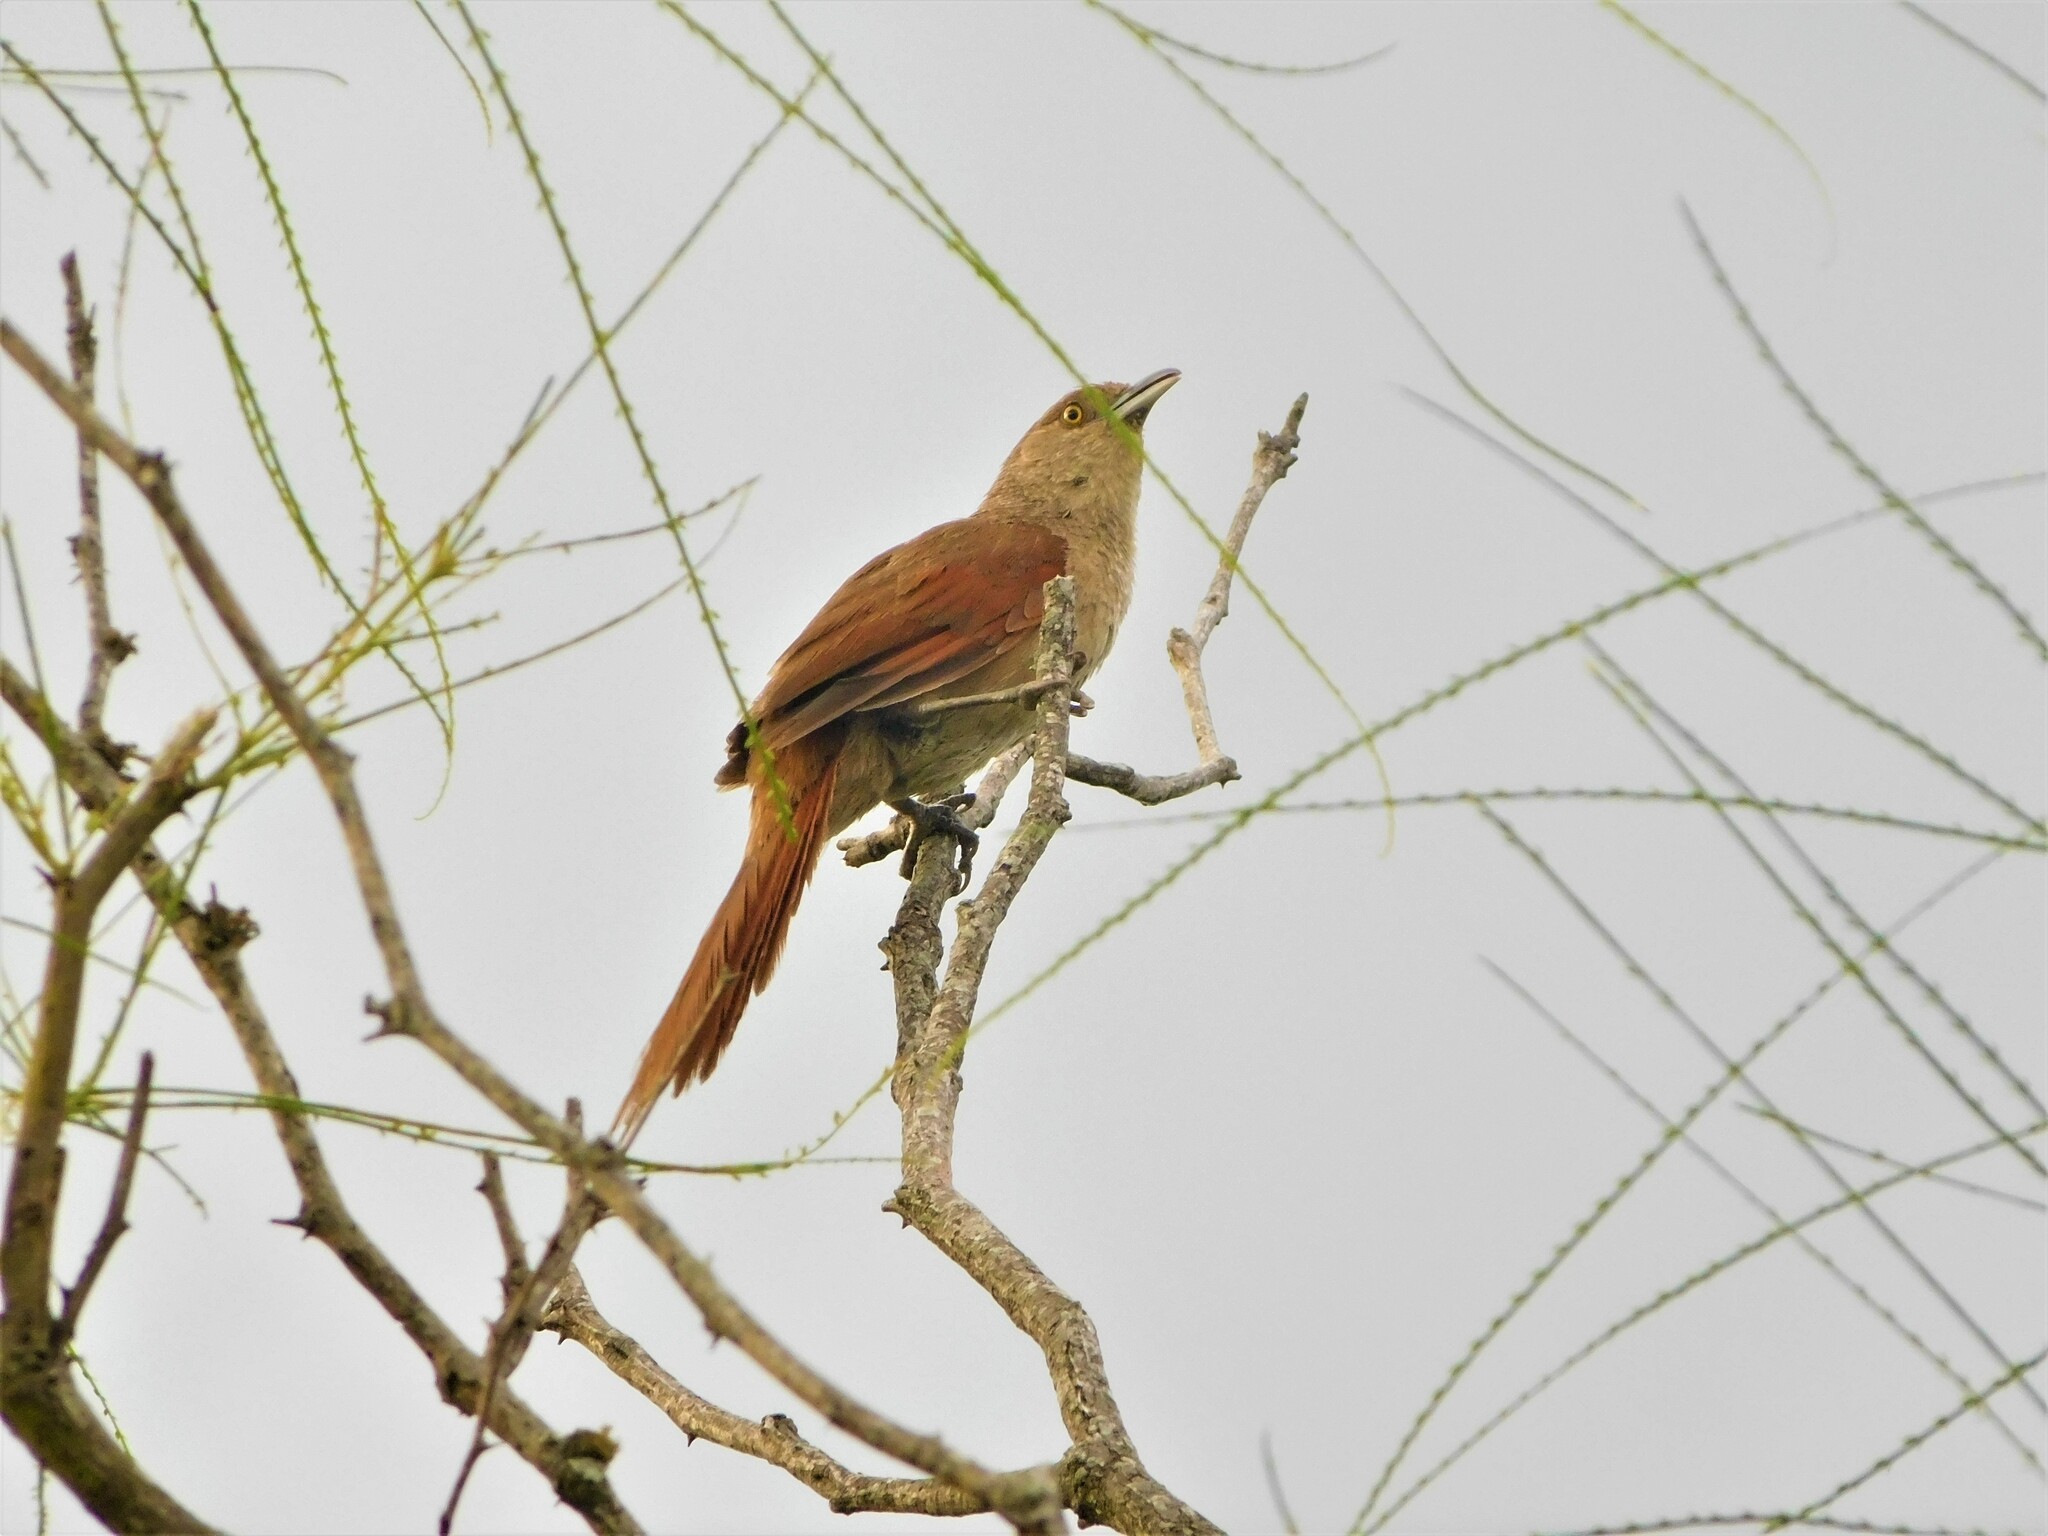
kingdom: Animalia
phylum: Chordata
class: Aves
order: Passeriformes
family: Furnariidae
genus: Phacellodomus
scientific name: Phacellodomus ruber
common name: Greater thornbird
